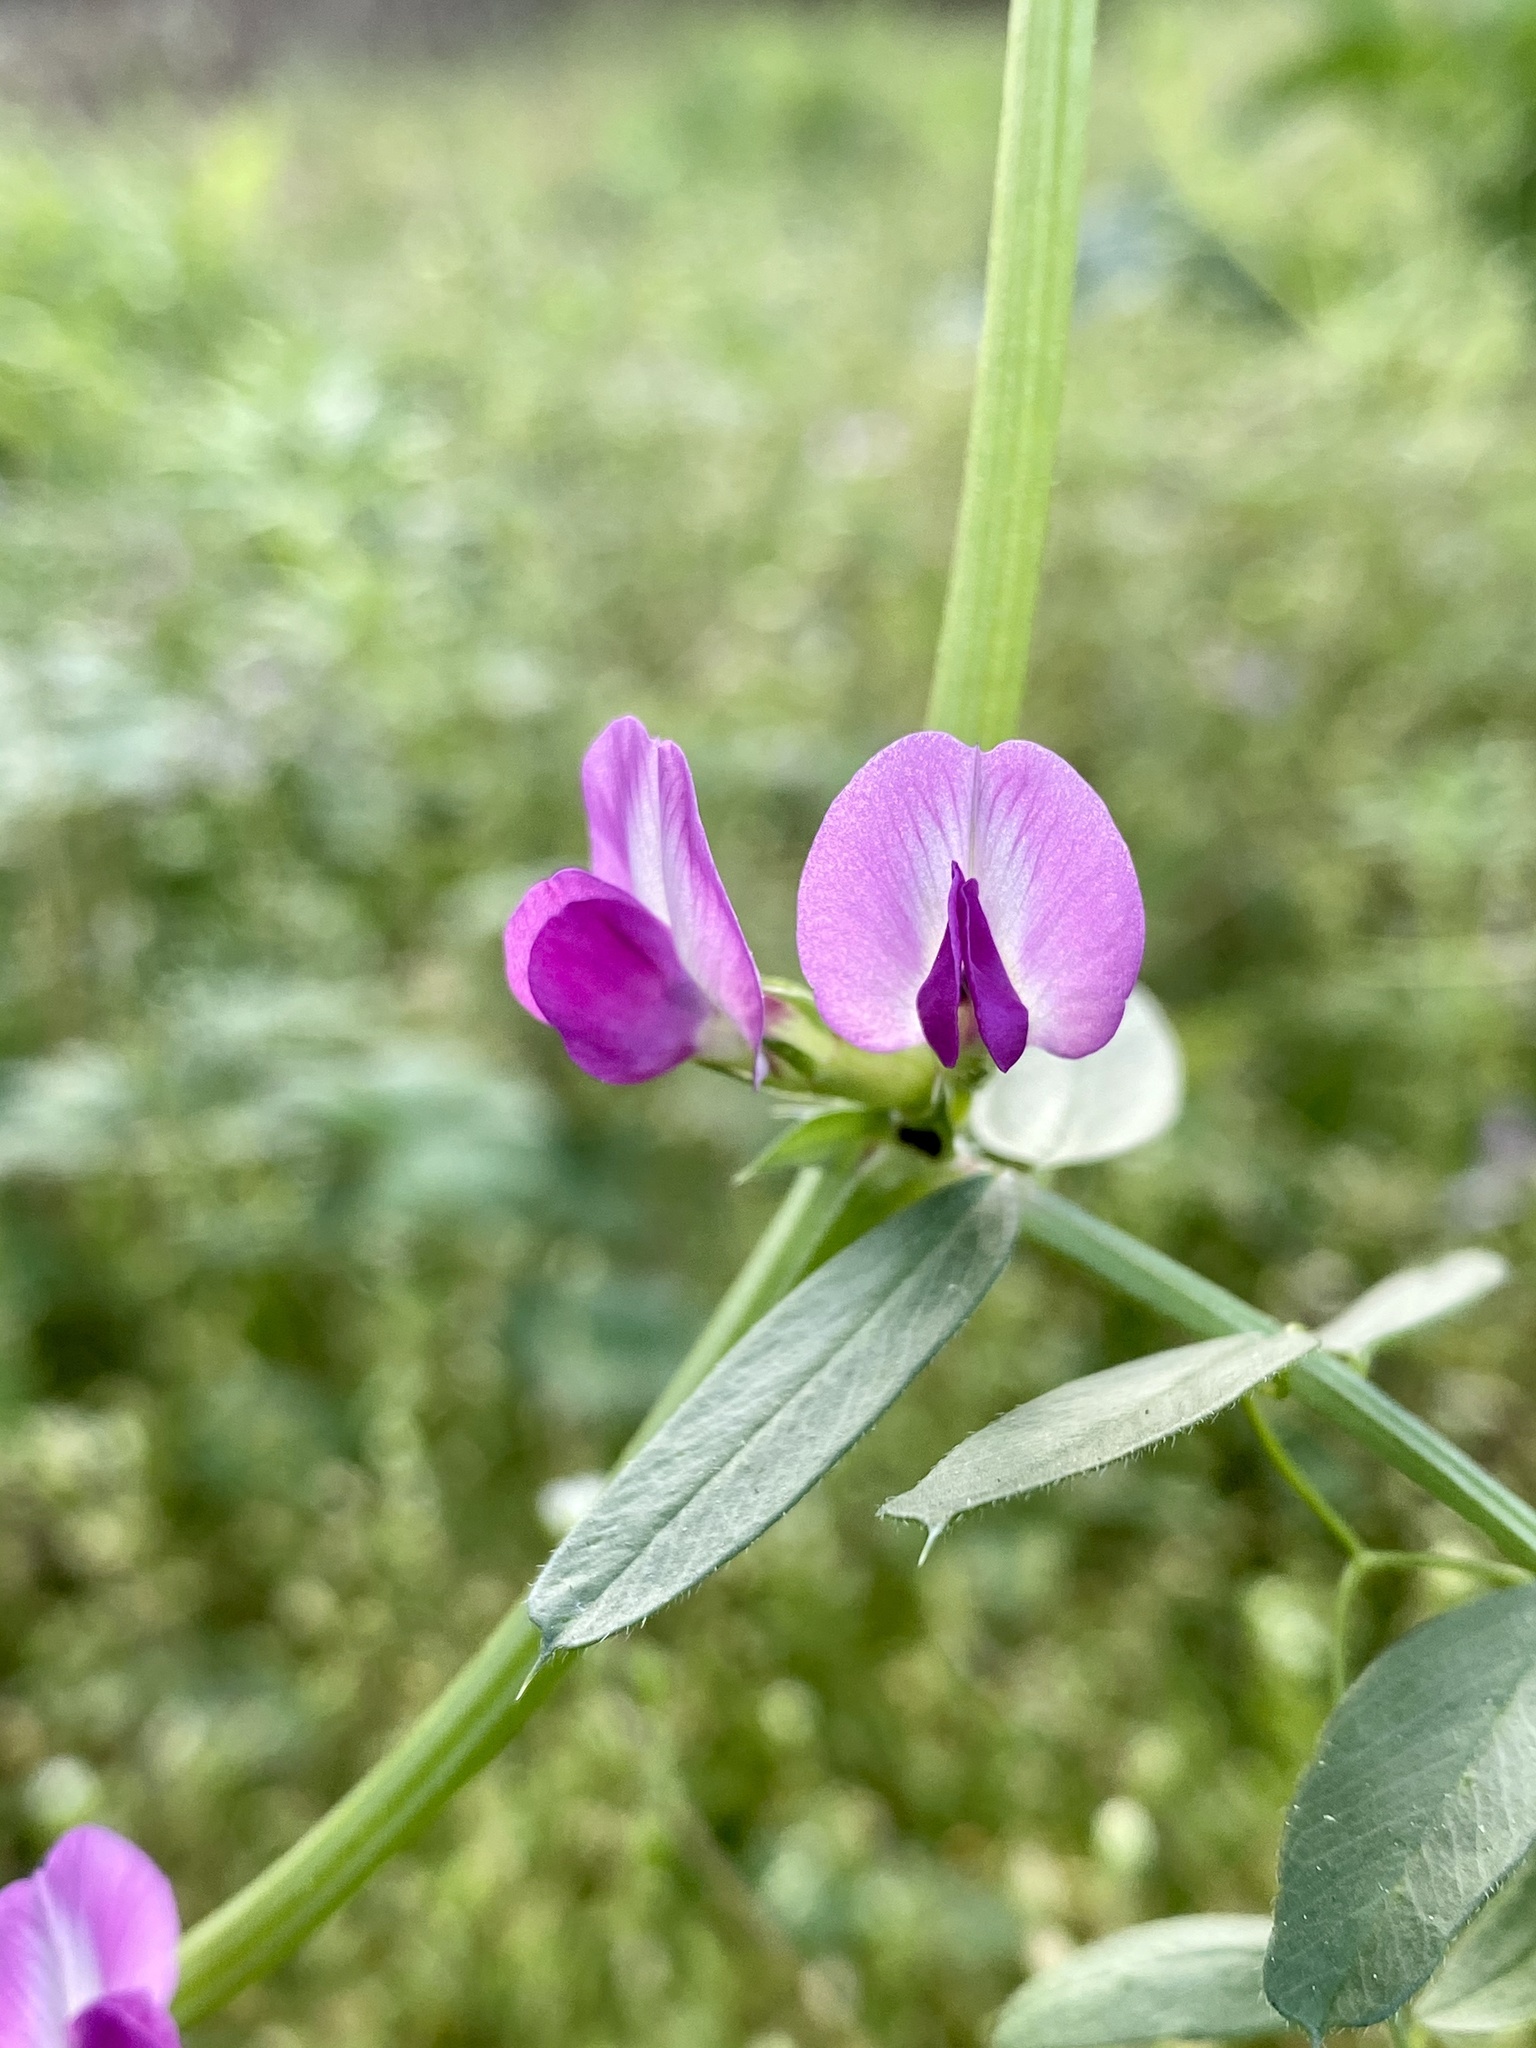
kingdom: Plantae
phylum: Tracheophyta
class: Magnoliopsida
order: Fabales
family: Fabaceae
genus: Vicia
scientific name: Vicia sativa
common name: Garden vetch
